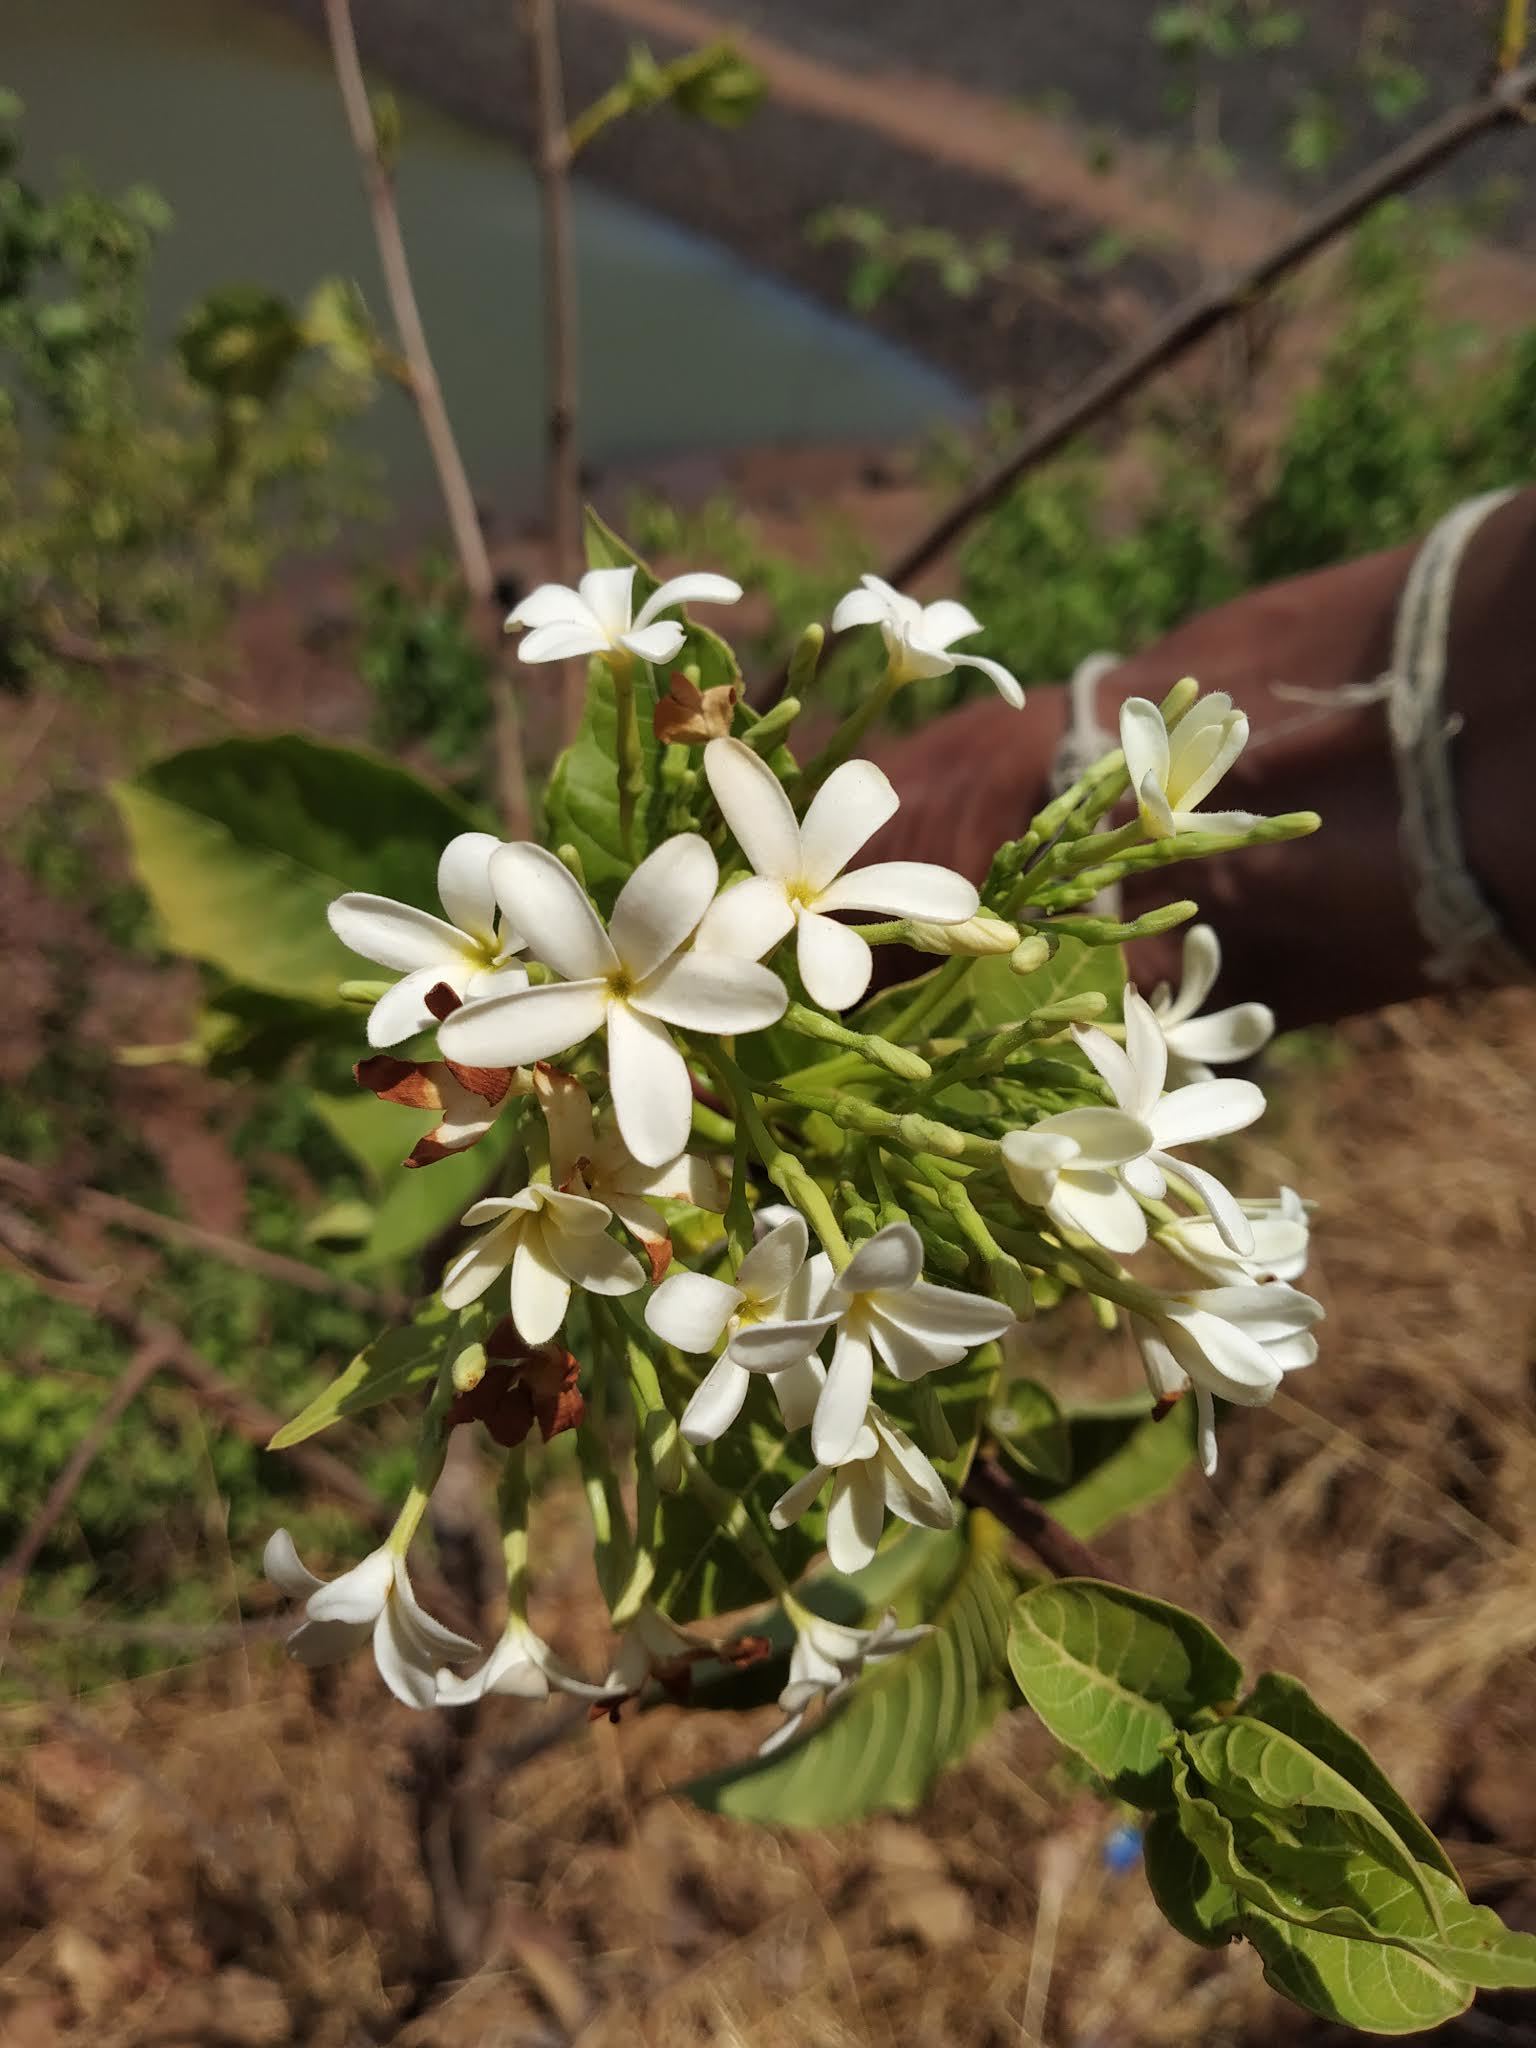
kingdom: Plantae
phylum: Tracheophyta
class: Magnoliopsida
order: Gentianales
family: Apocynaceae
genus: Holarrhena
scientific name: Holarrhena pubescens
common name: Bitter oleander
